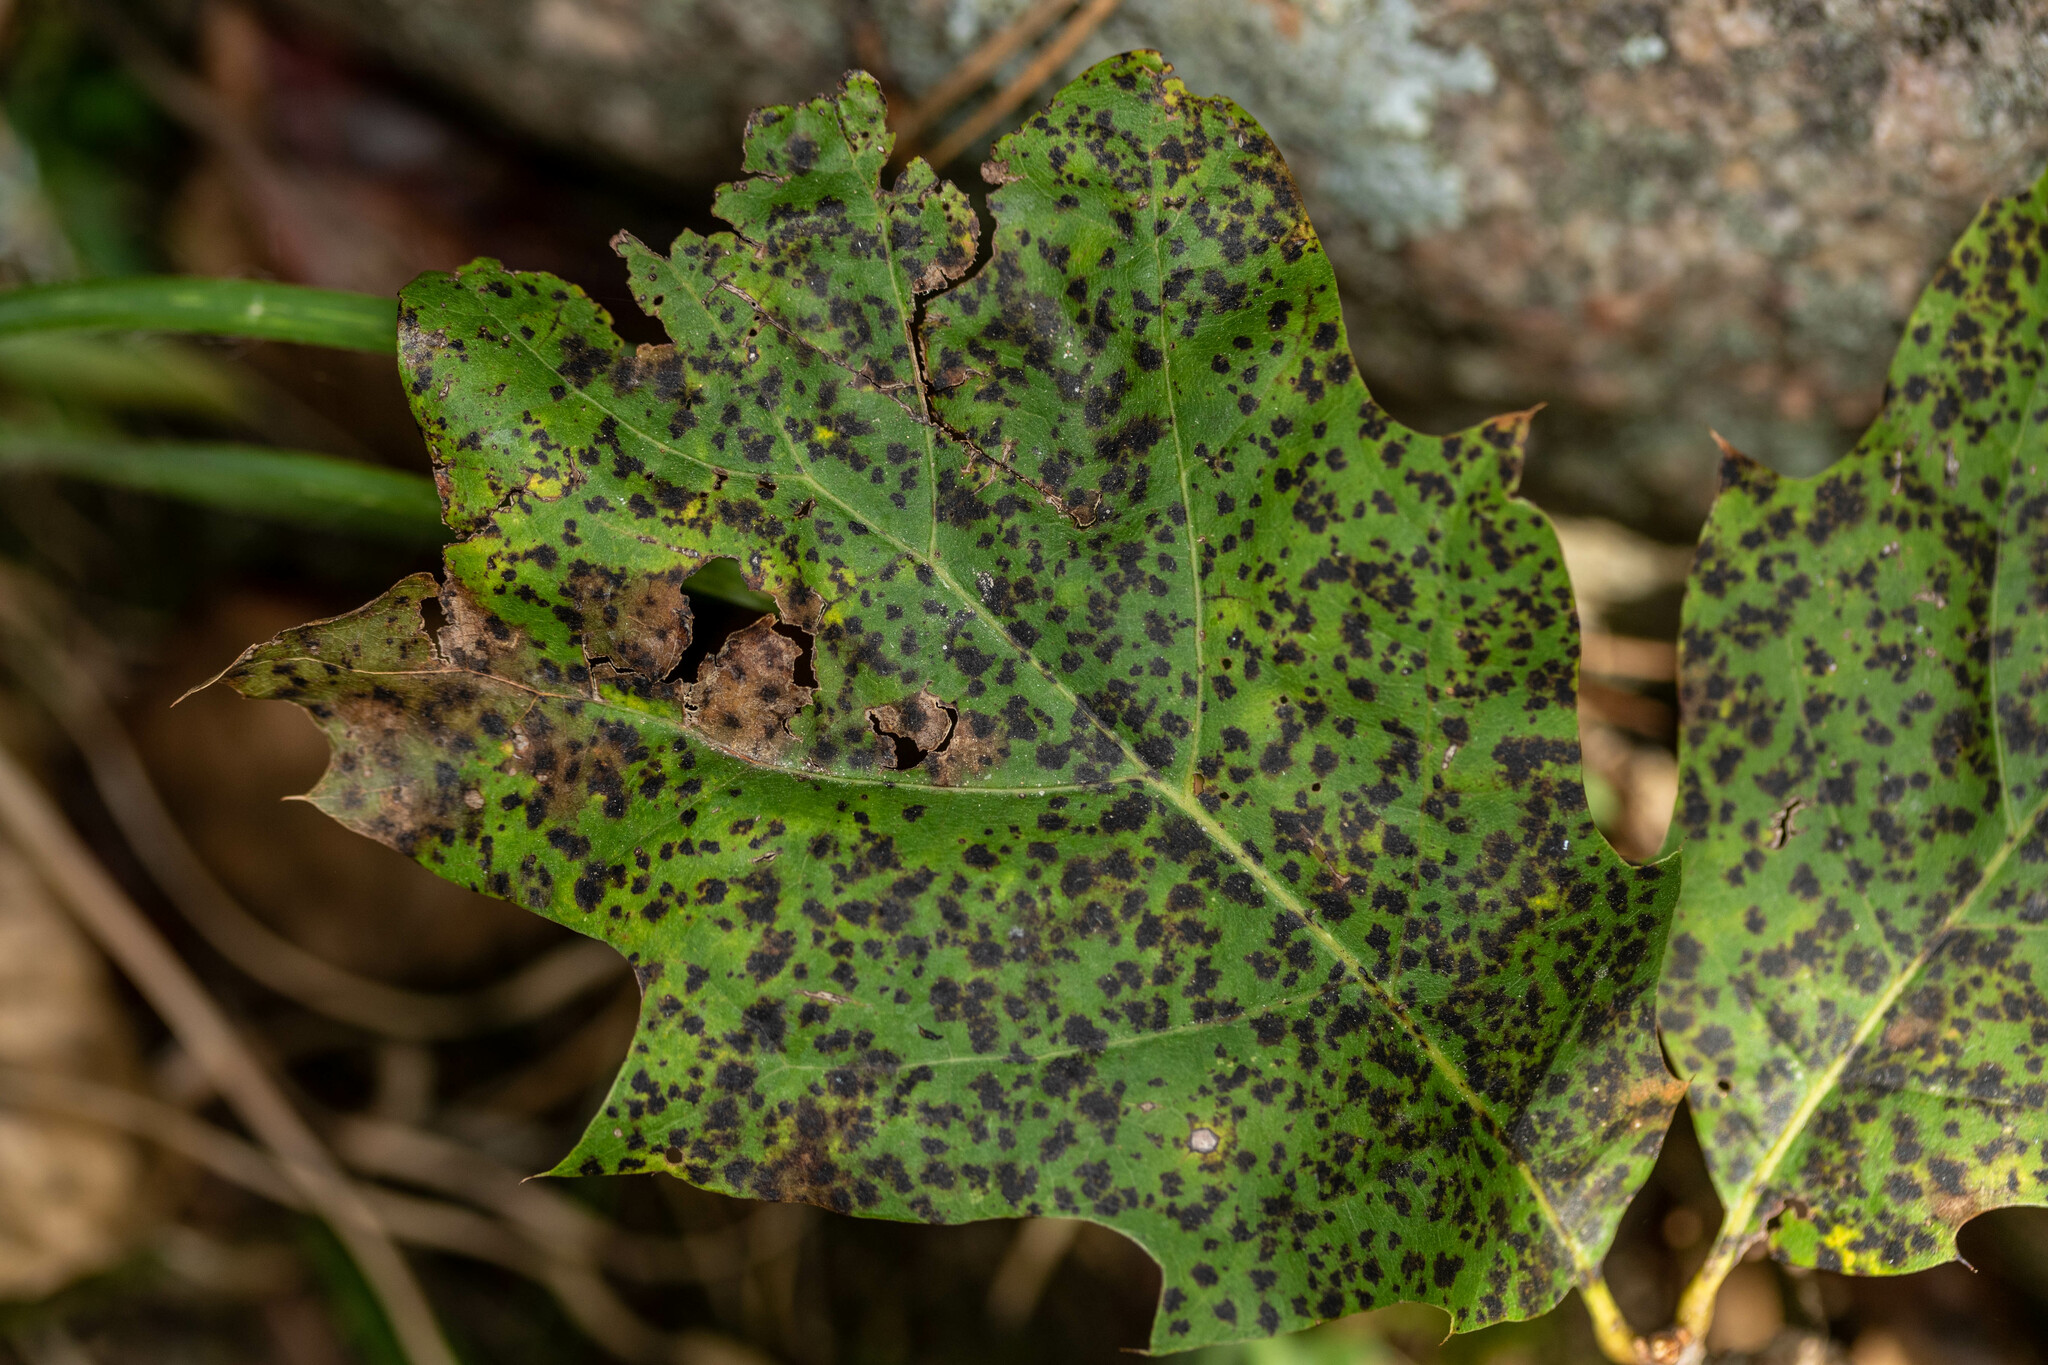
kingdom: Fungi
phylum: Ascomycota
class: Sordariomycetes
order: Diaporthales
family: Melanconidaceae
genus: Dicarpella
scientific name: Dicarpella dryina
